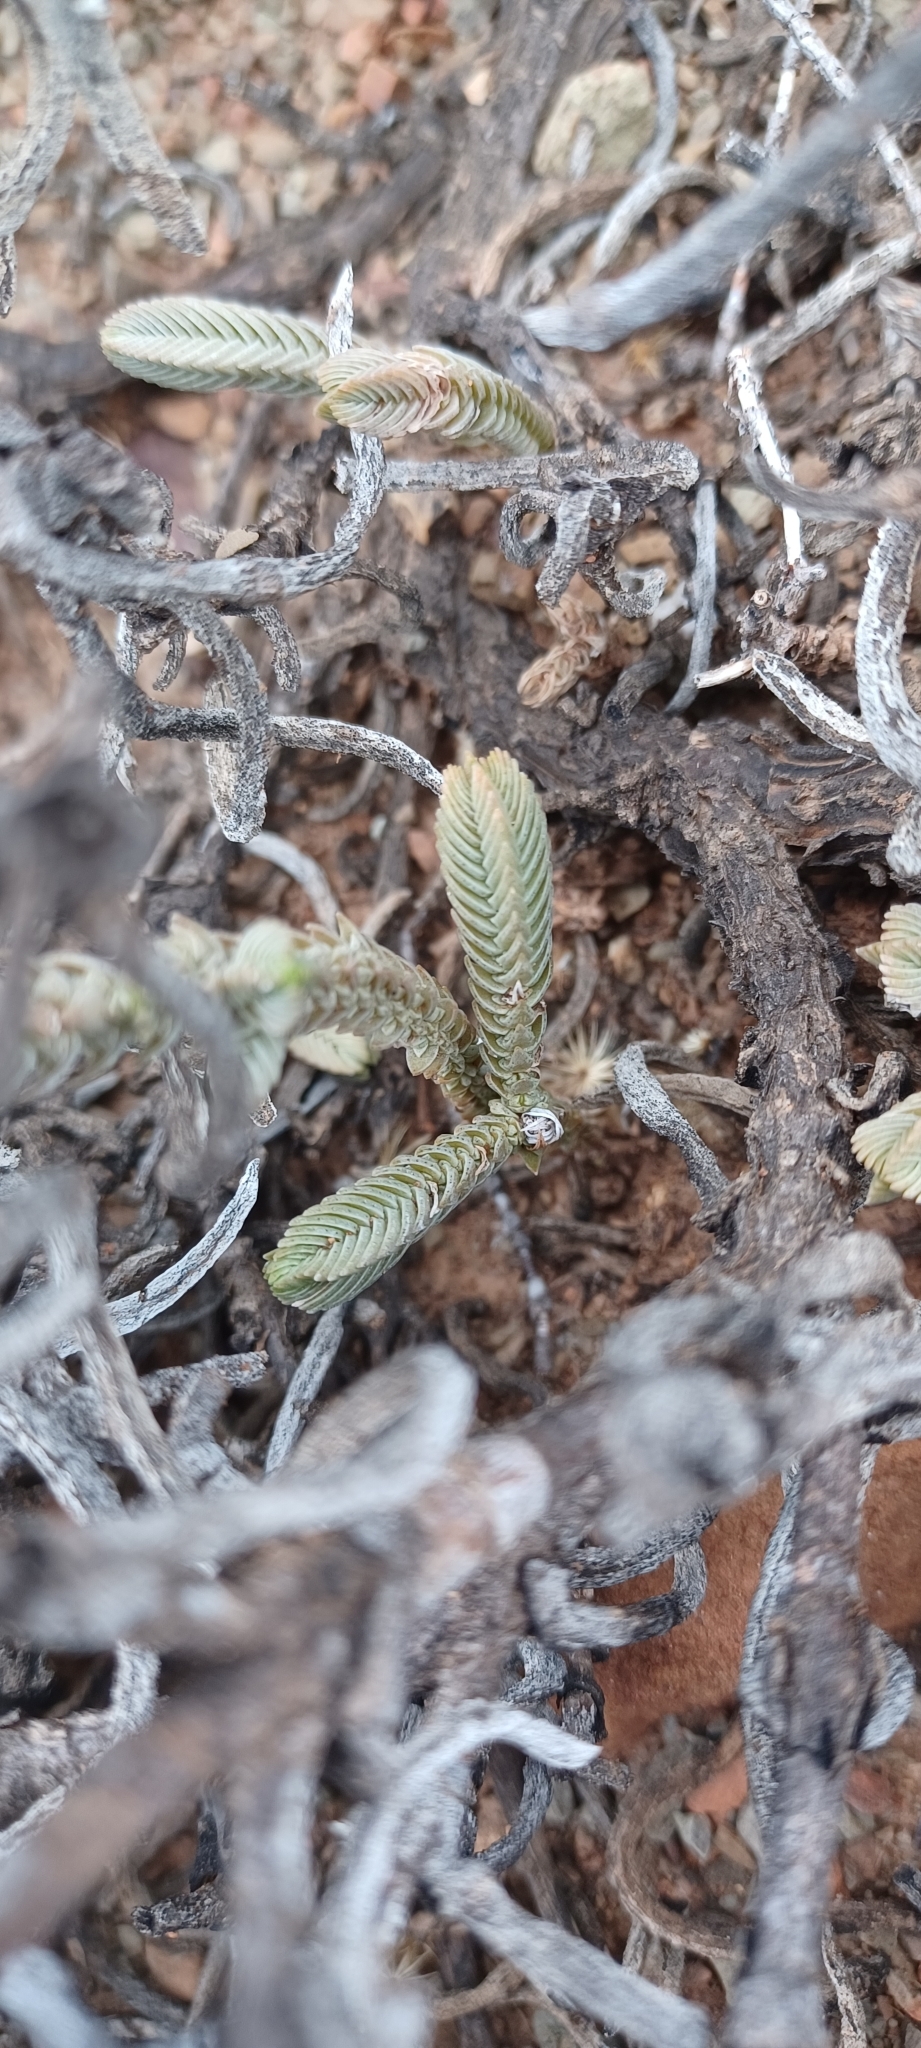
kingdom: Plantae
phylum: Tracheophyta
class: Magnoliopsida
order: Saxifragales
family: Crassulaceae
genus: Crassula
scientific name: Crassula muscosa
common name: Toy-cypress
